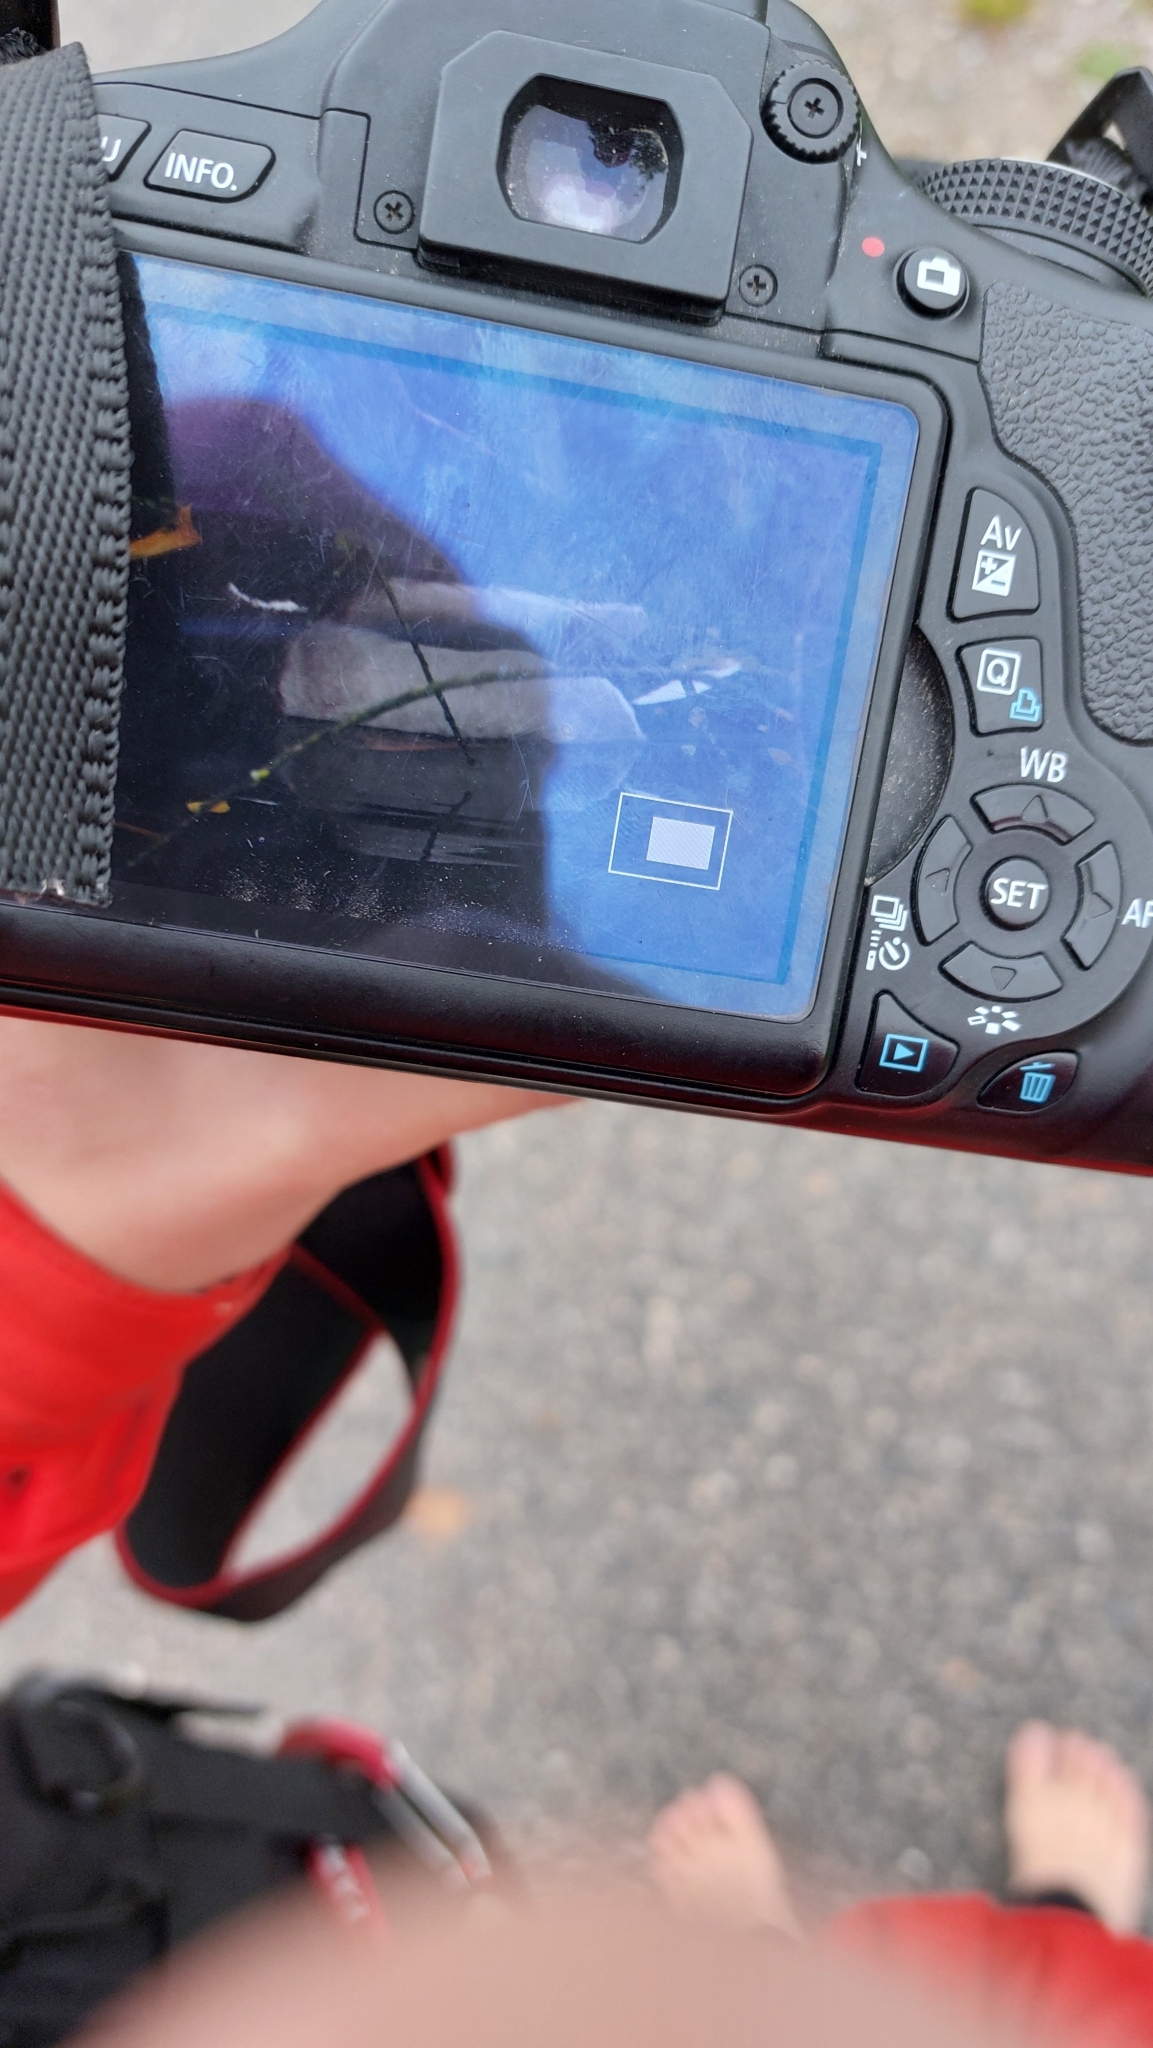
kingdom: Animalia
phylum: Chordata
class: Aves
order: Anseriformes
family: Anatidae
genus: Anas
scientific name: Anas platyrhynchos
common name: Mallard
